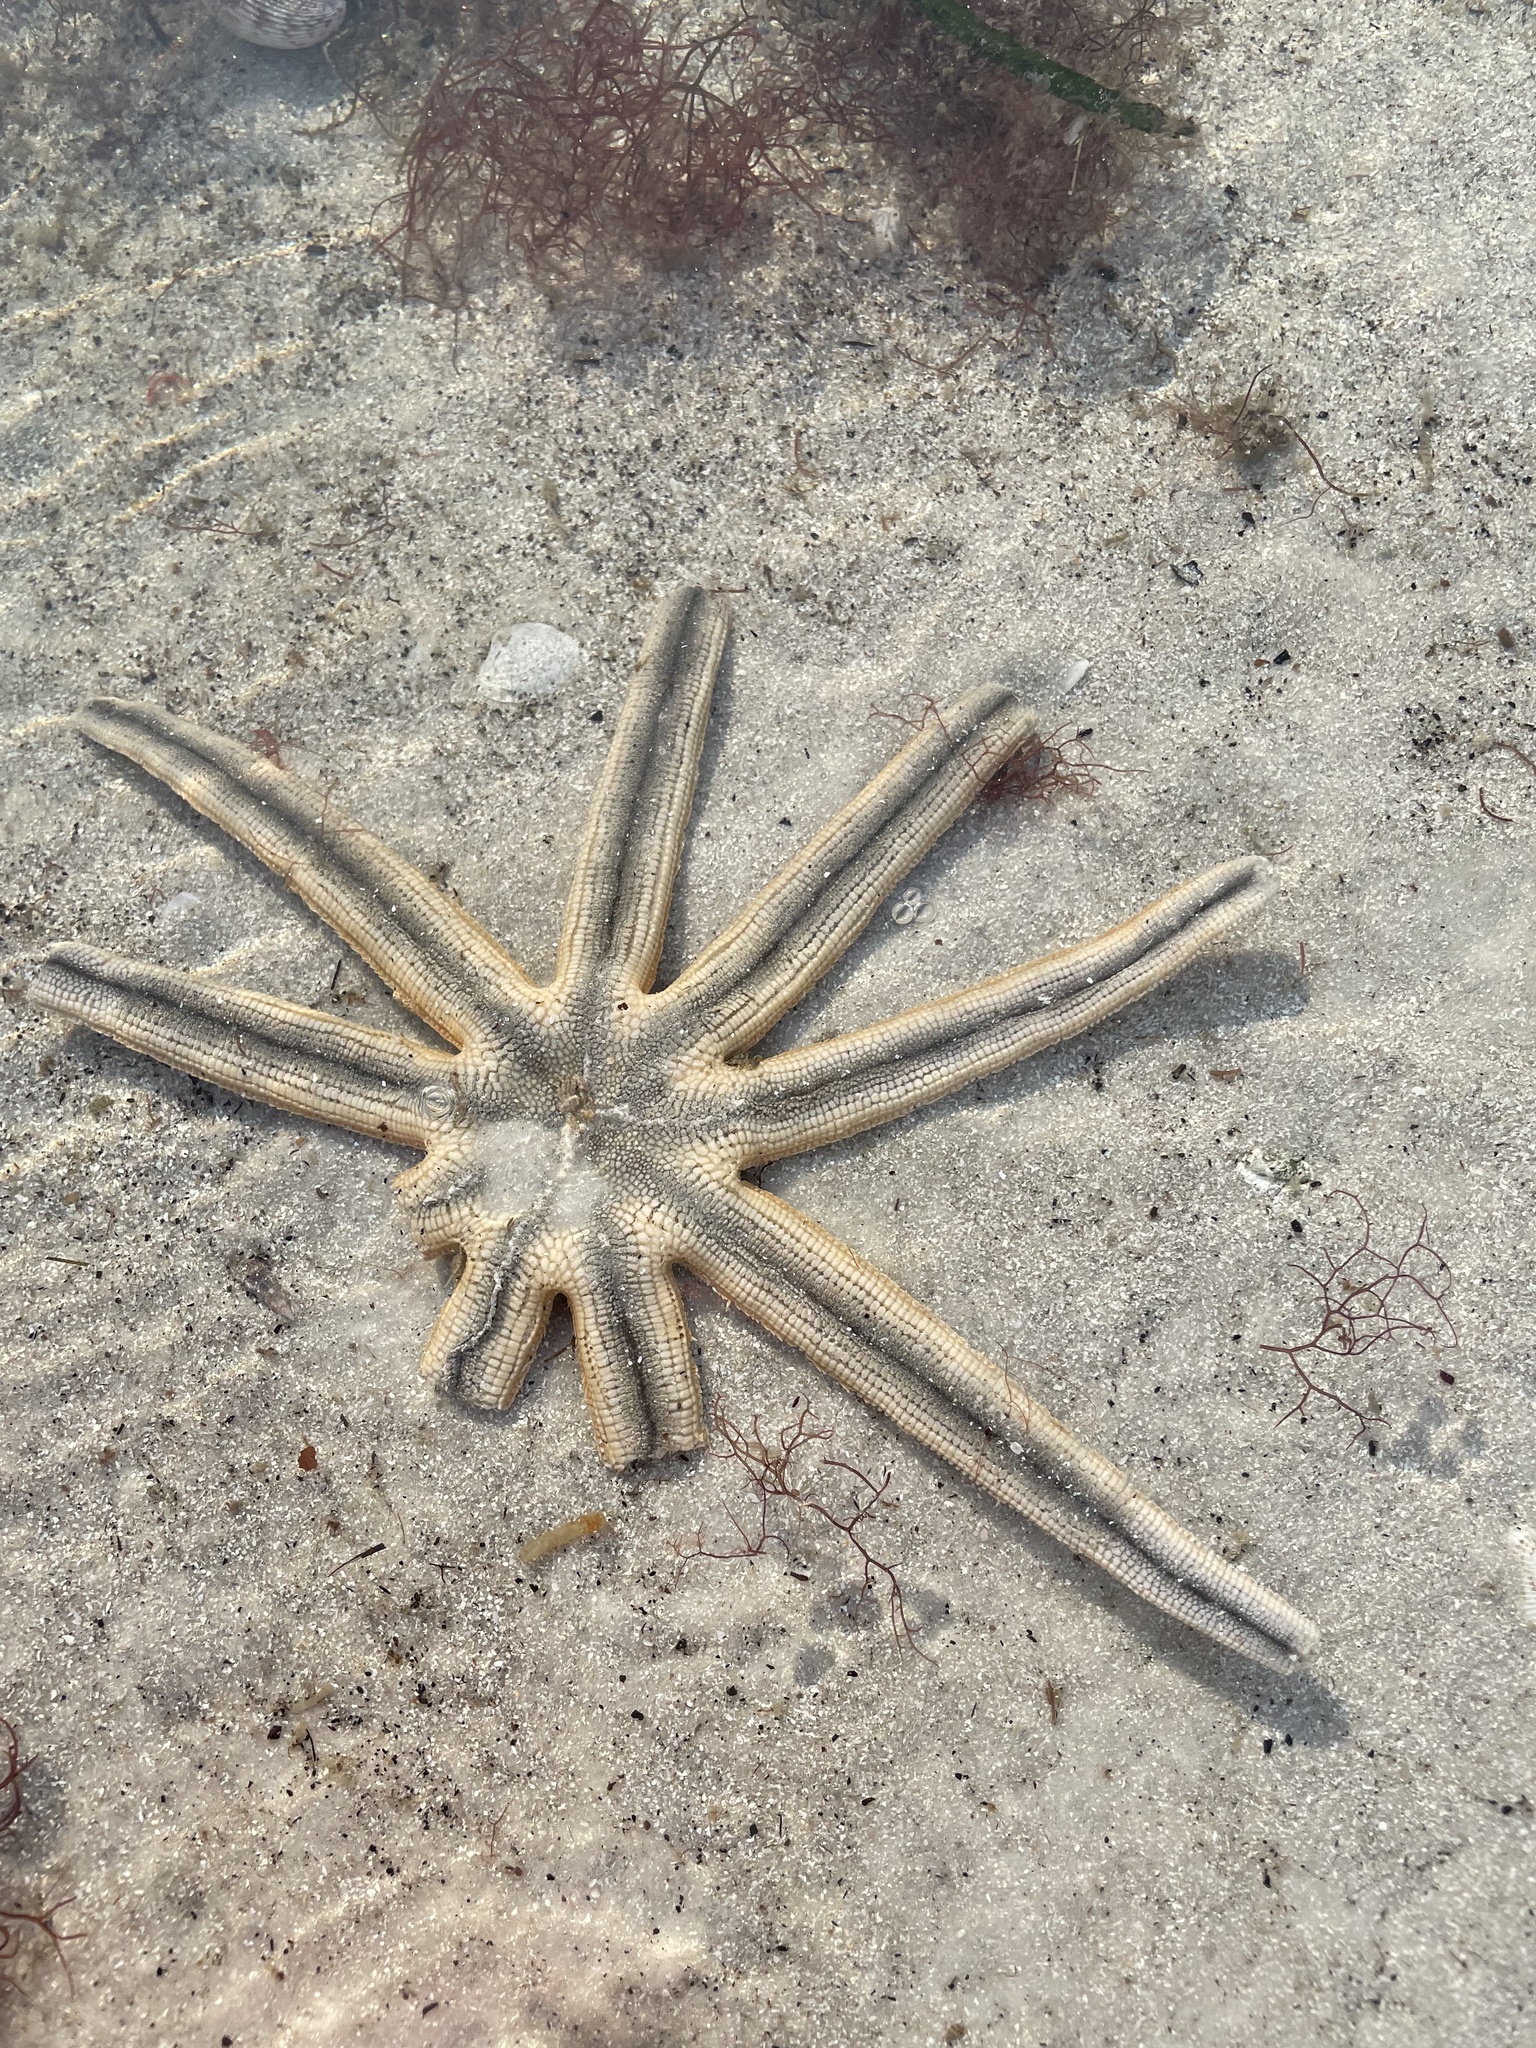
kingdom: Animalia
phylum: Echinodermata
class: Asteroidea
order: Paxillosida
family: Luidiidae
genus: Luidia
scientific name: Luidia senegalensis
